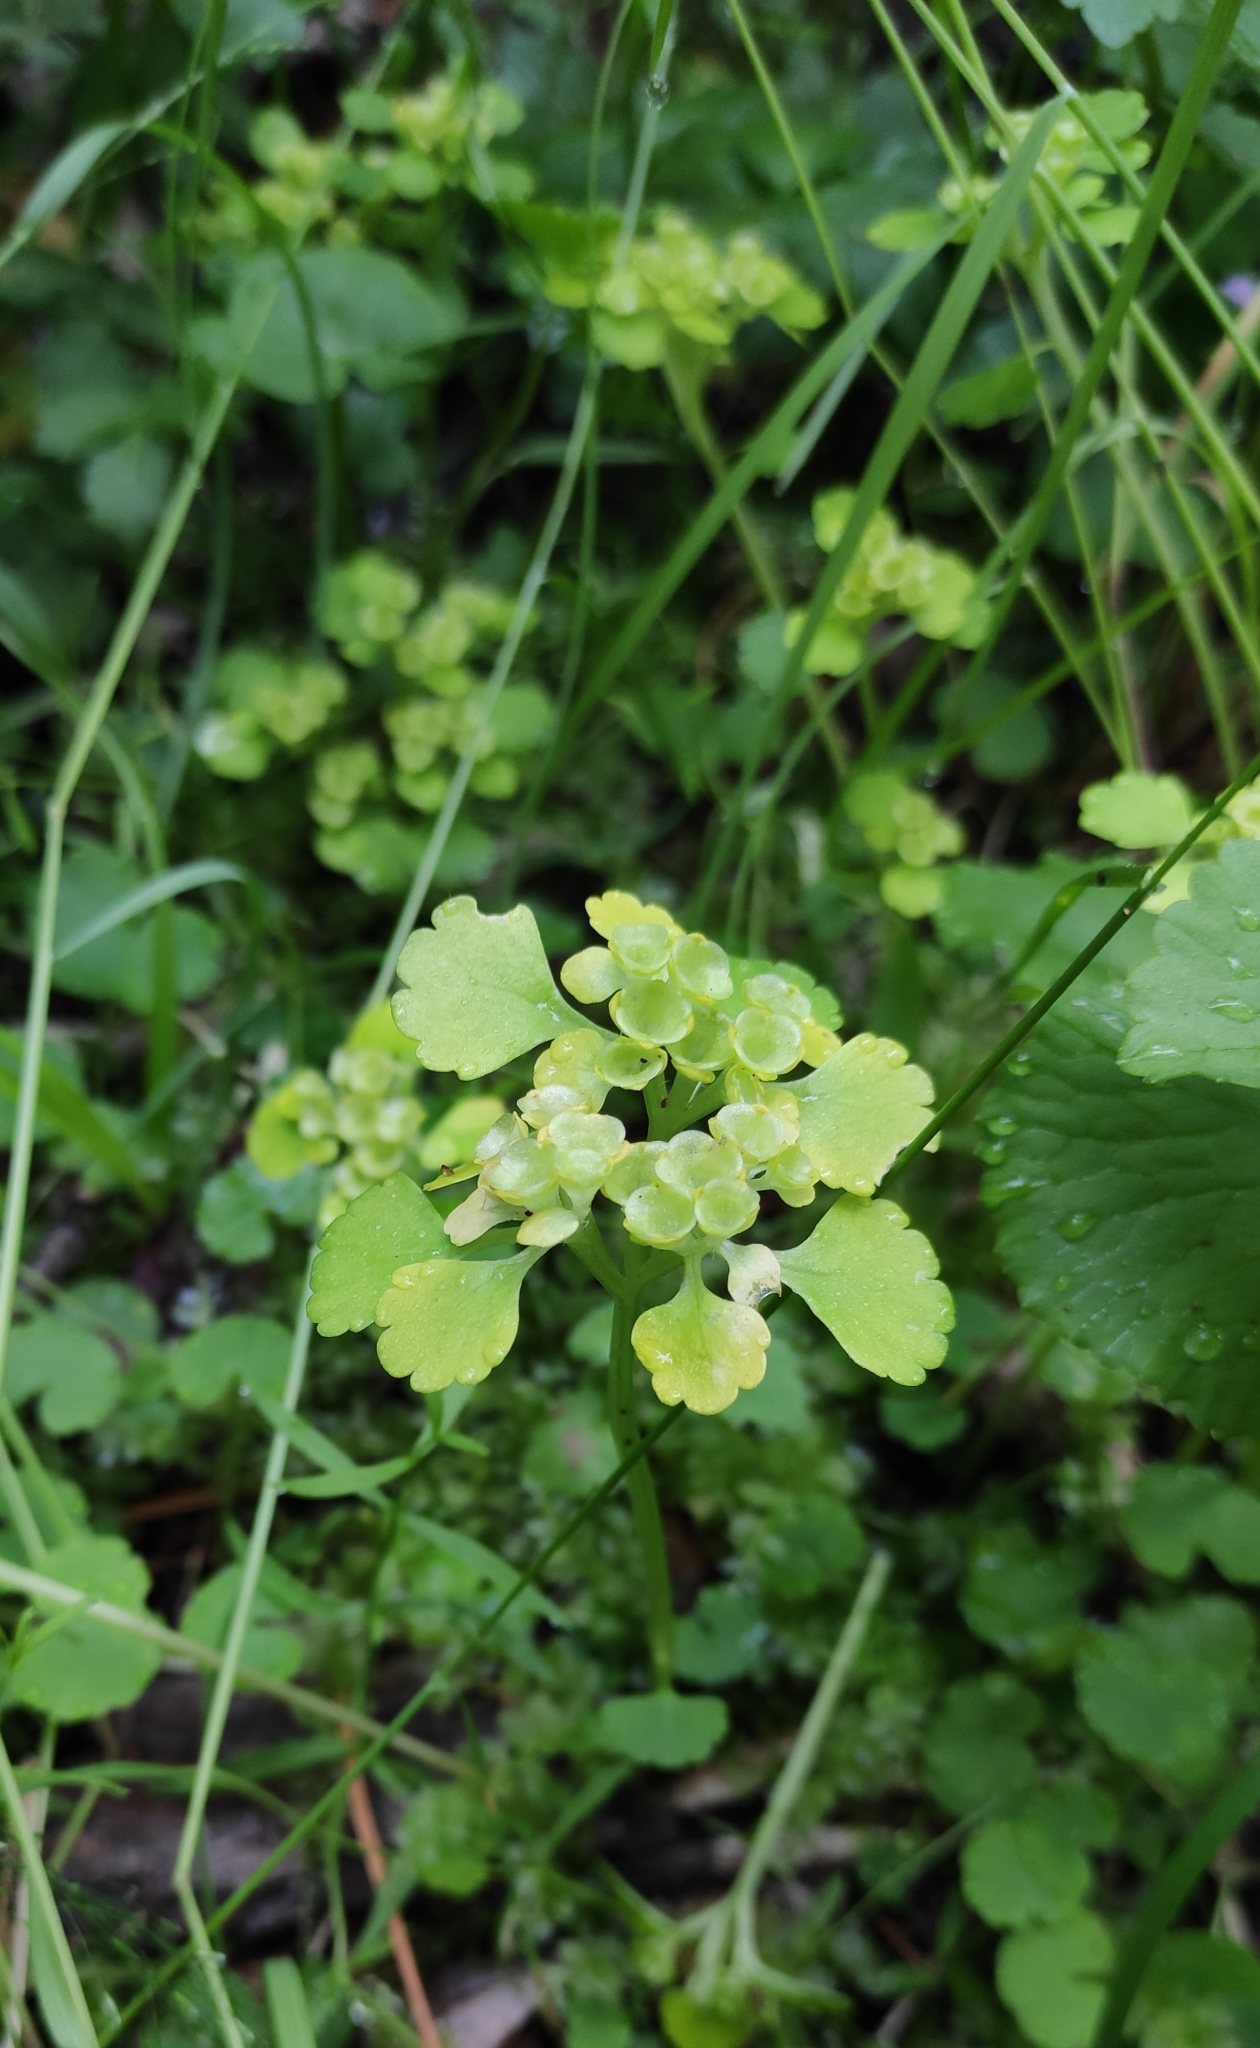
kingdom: Plantae
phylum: Tracheophyta
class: Magnoliopsida
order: Saxifragales
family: Saxifragaceae
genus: Chrysosplenium
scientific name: Chrysosplenium sibiricum
